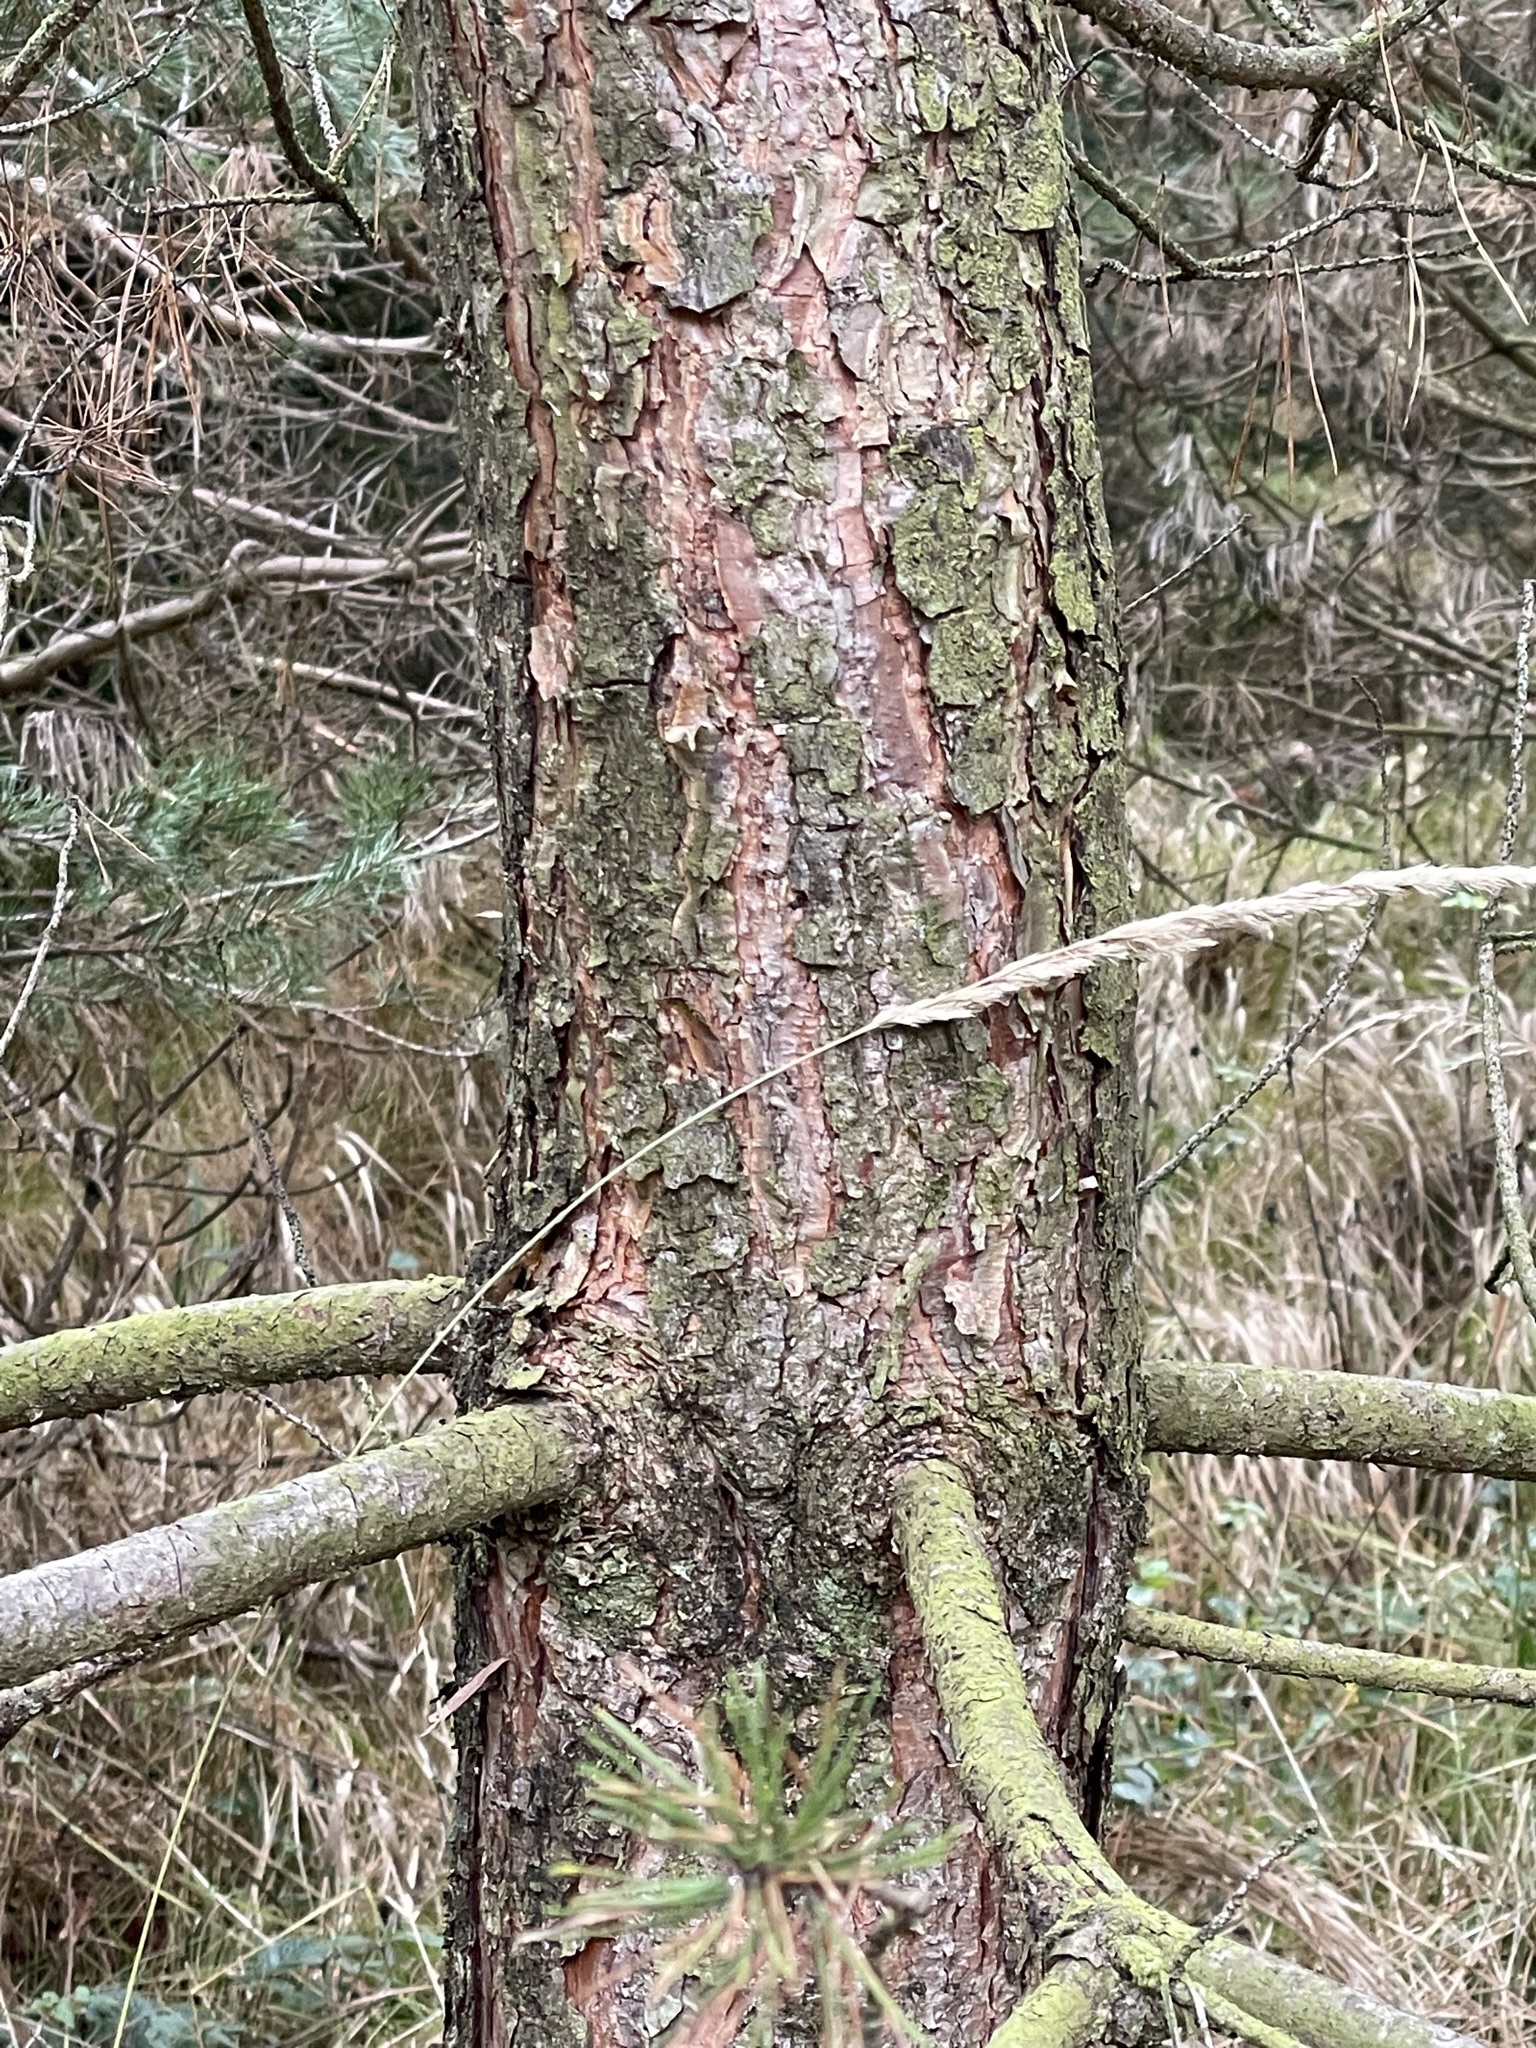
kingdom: Plantae
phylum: Tracheophyta
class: Pinopsida
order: Pinales
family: Pinaceae
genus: Pinus
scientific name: Pinus sylvestris
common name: Scots pine
